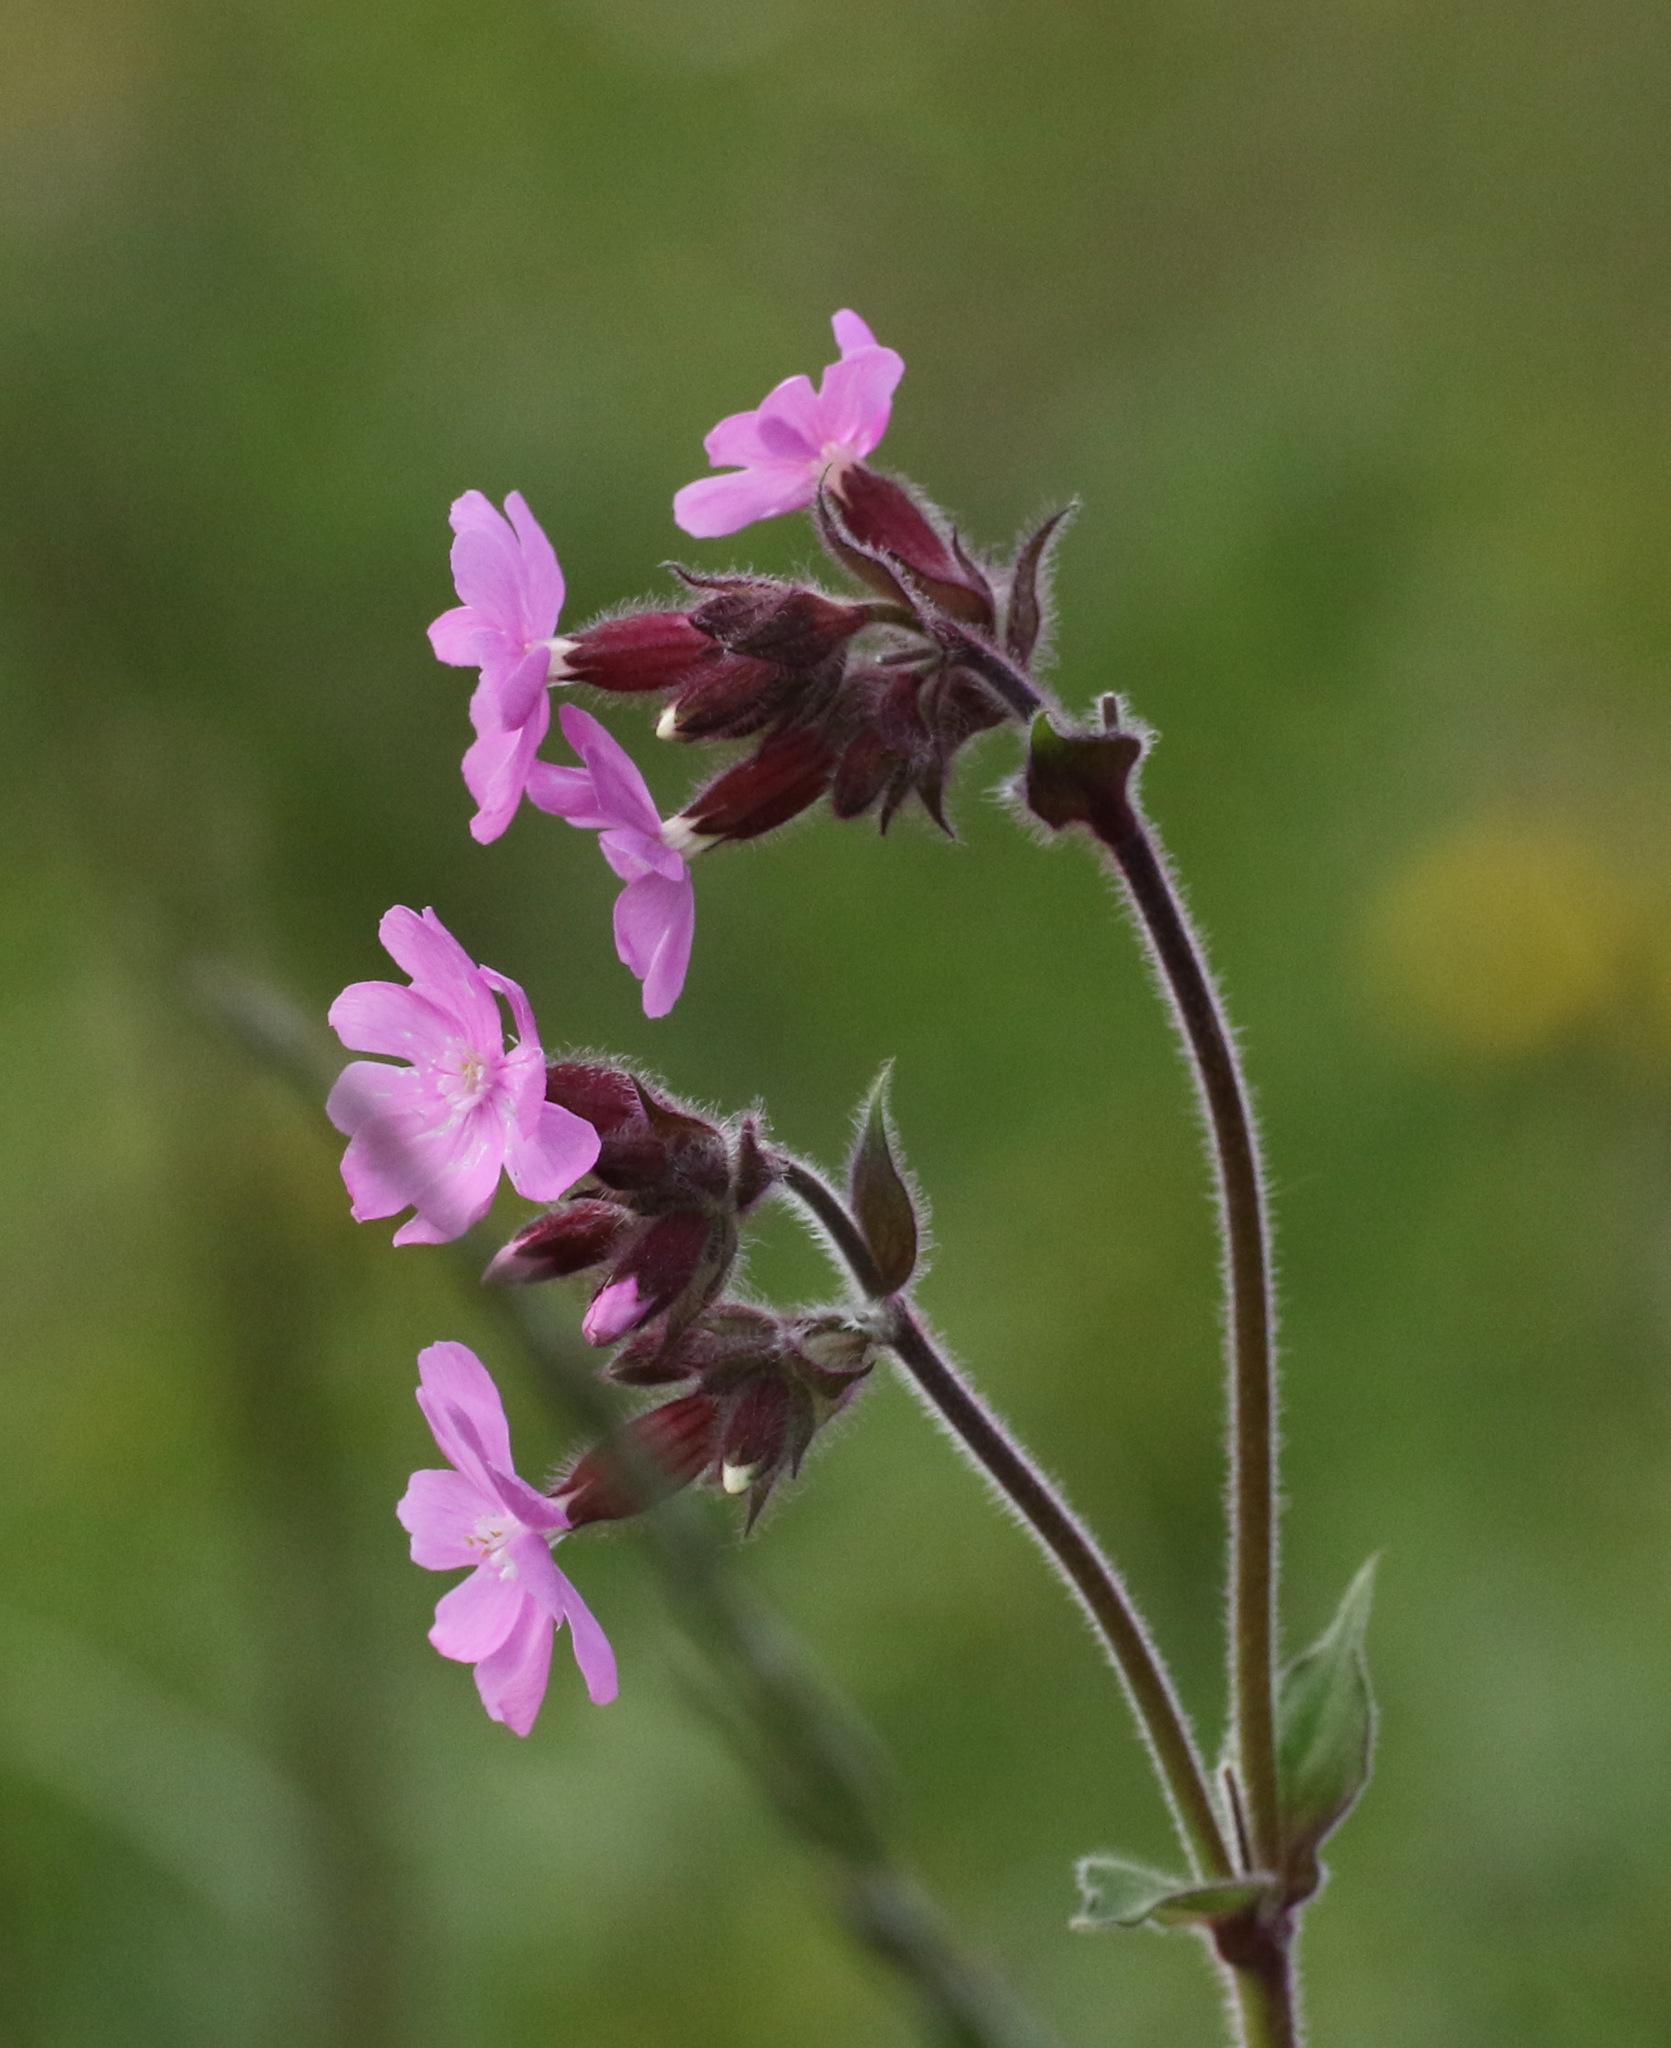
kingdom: Plantae
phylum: Tracheophyta
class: Magnoliopsida
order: Caryophyllales
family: Caryophyllaceae
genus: Silene
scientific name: Silene dioica
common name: Red campion
